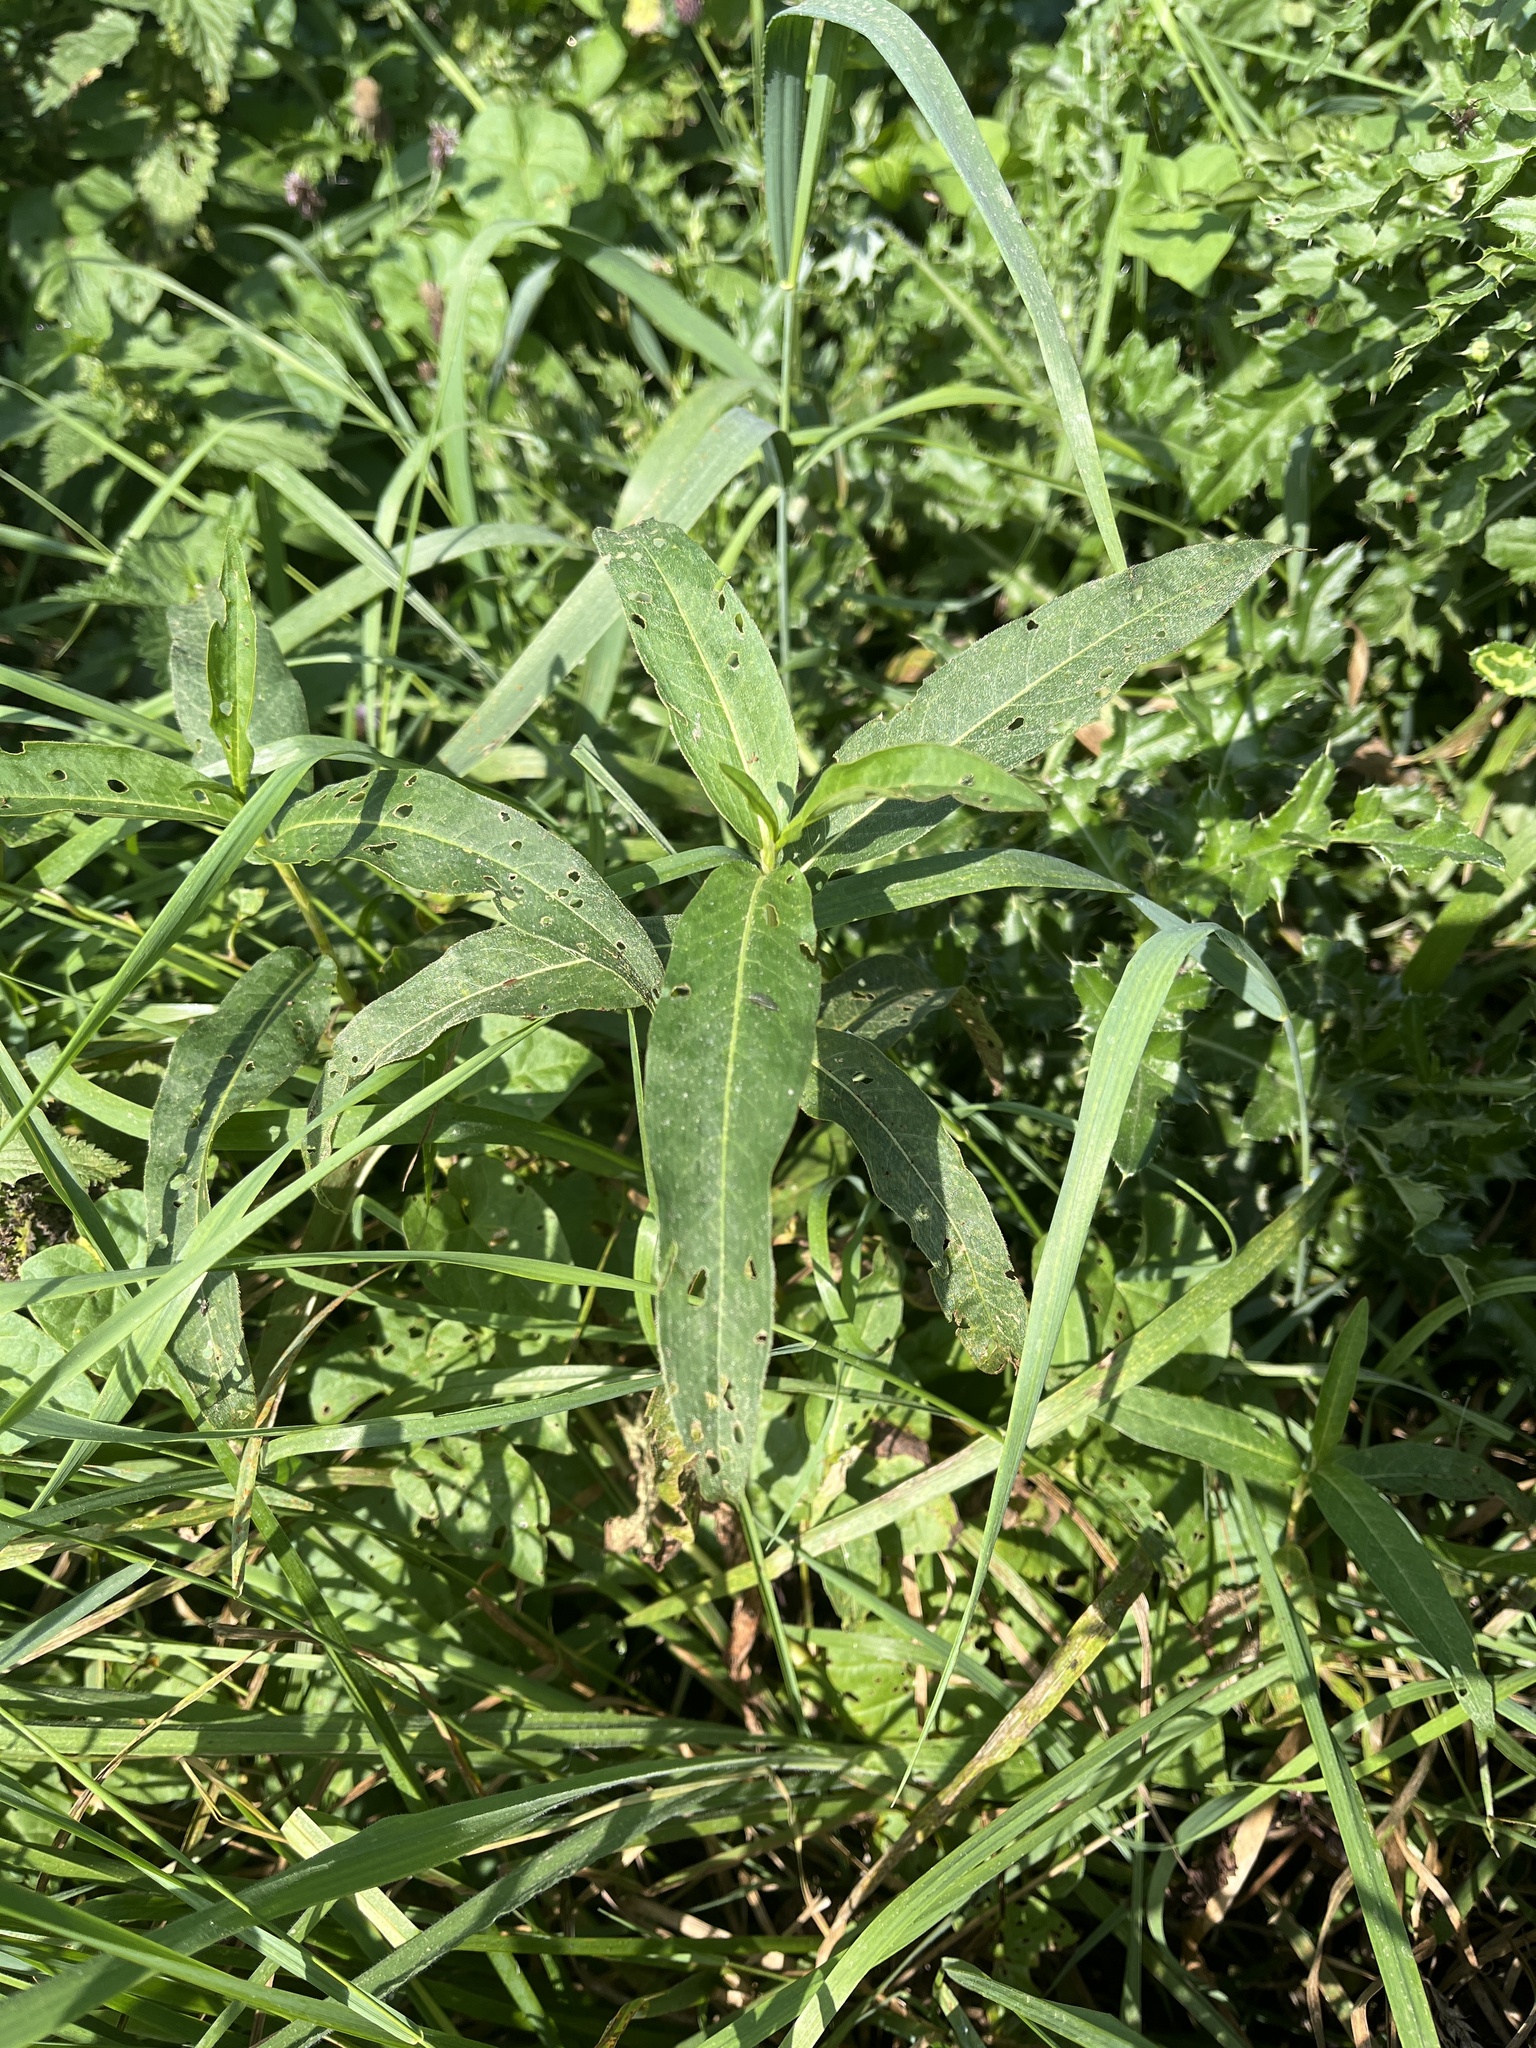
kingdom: Plantae
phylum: Tracheophyta
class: Magnoliopsida
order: Caryophyllales
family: Polygonaceae
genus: Persicaria
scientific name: Persicaria amphibia
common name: Amphibious bistort
